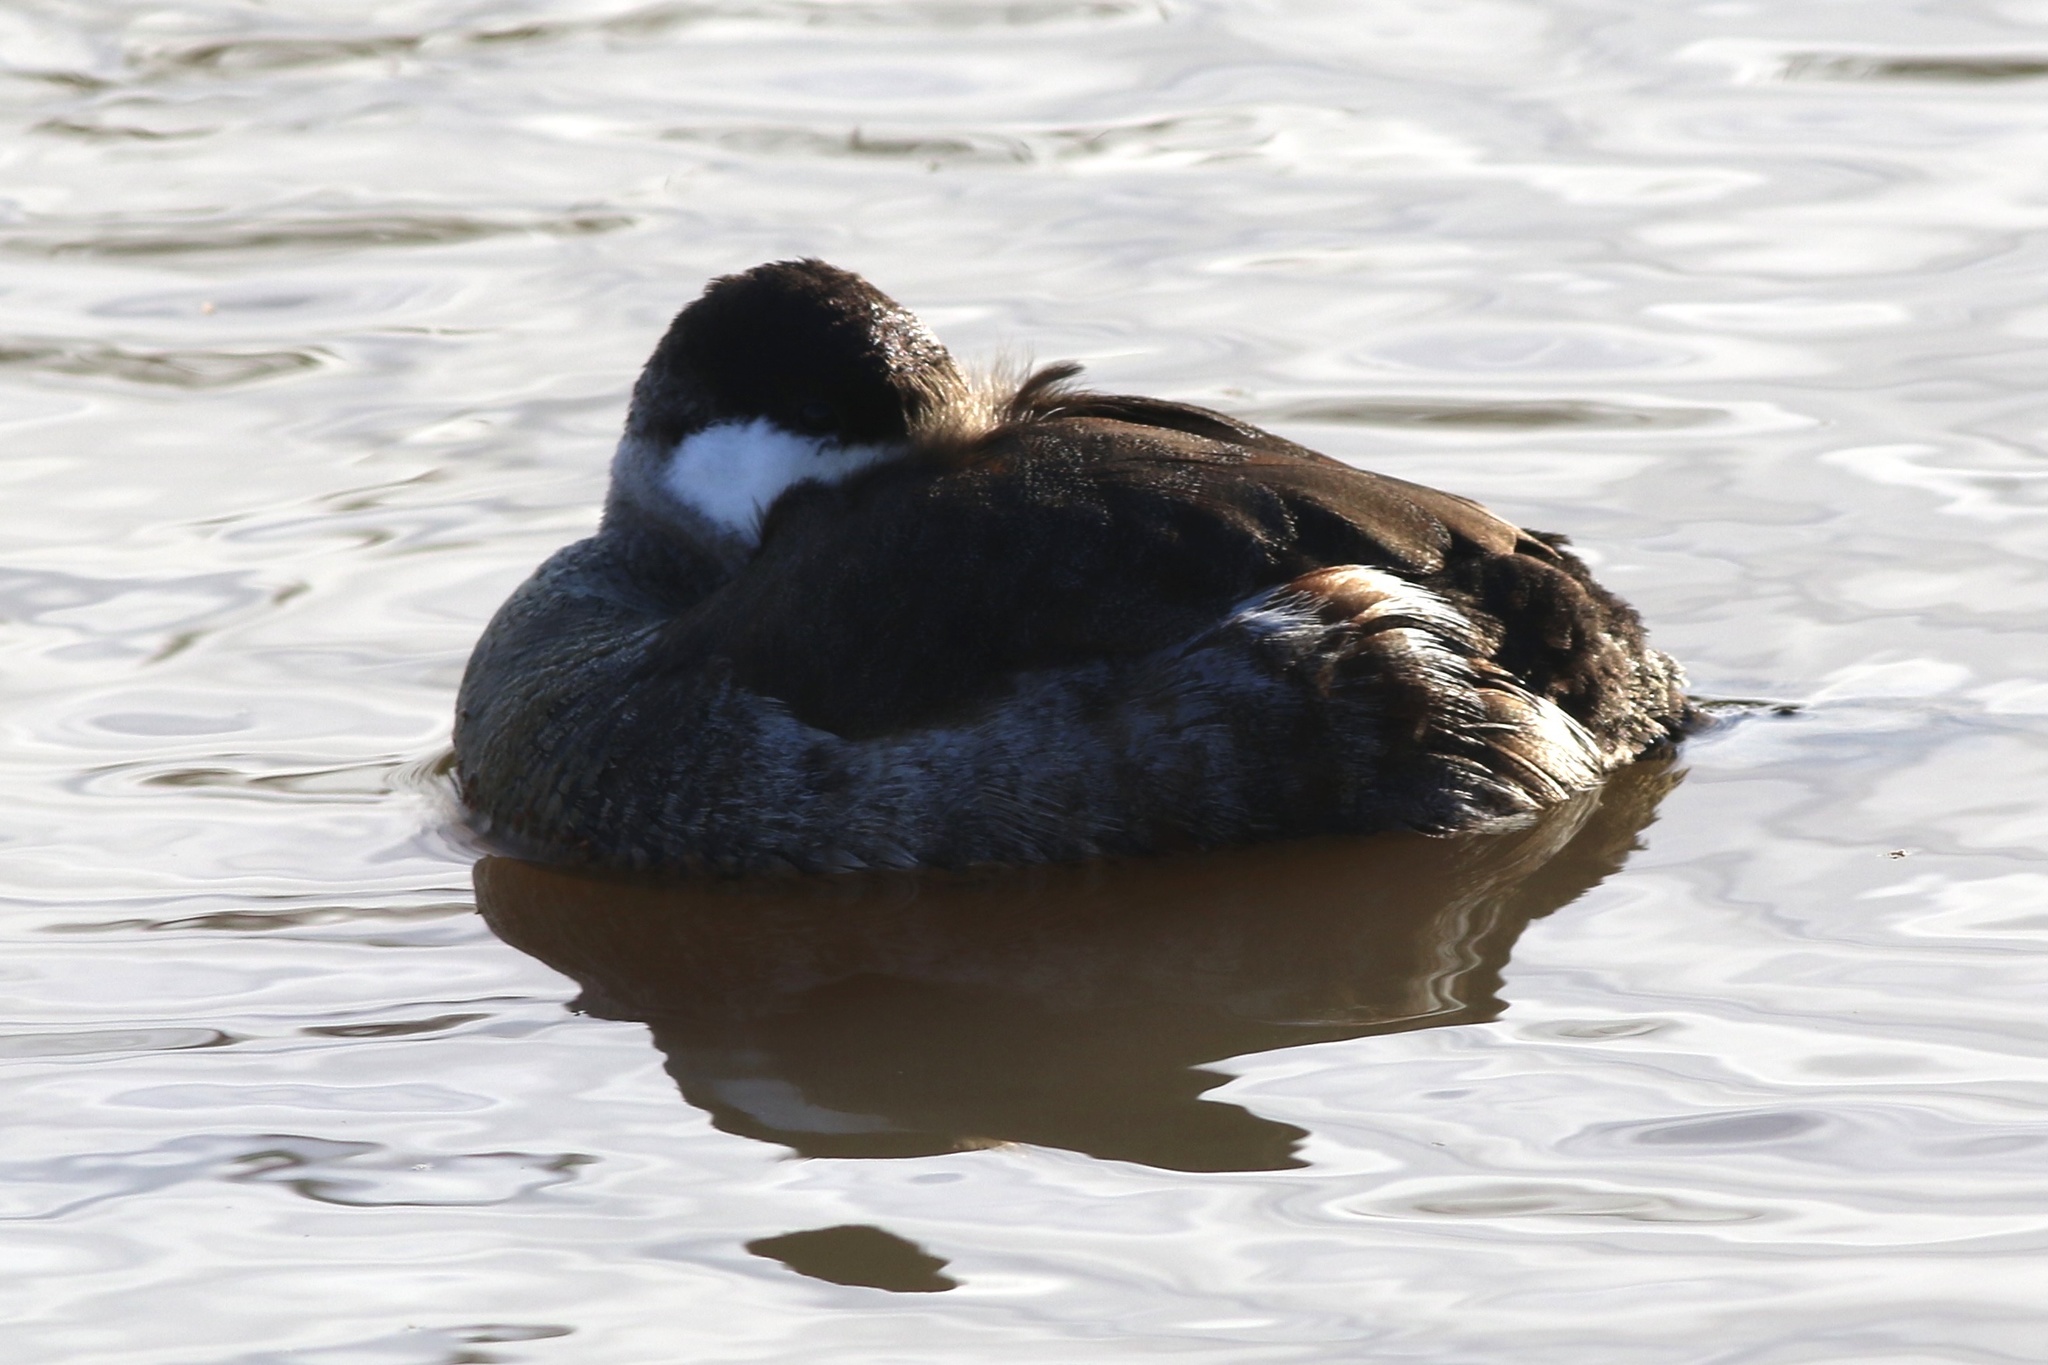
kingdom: Animalia
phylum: Chordata
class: Aves
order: Anseriformes
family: Anatidae
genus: Oxyura
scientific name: Oxyura jamaicensis
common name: Ruddy duck
